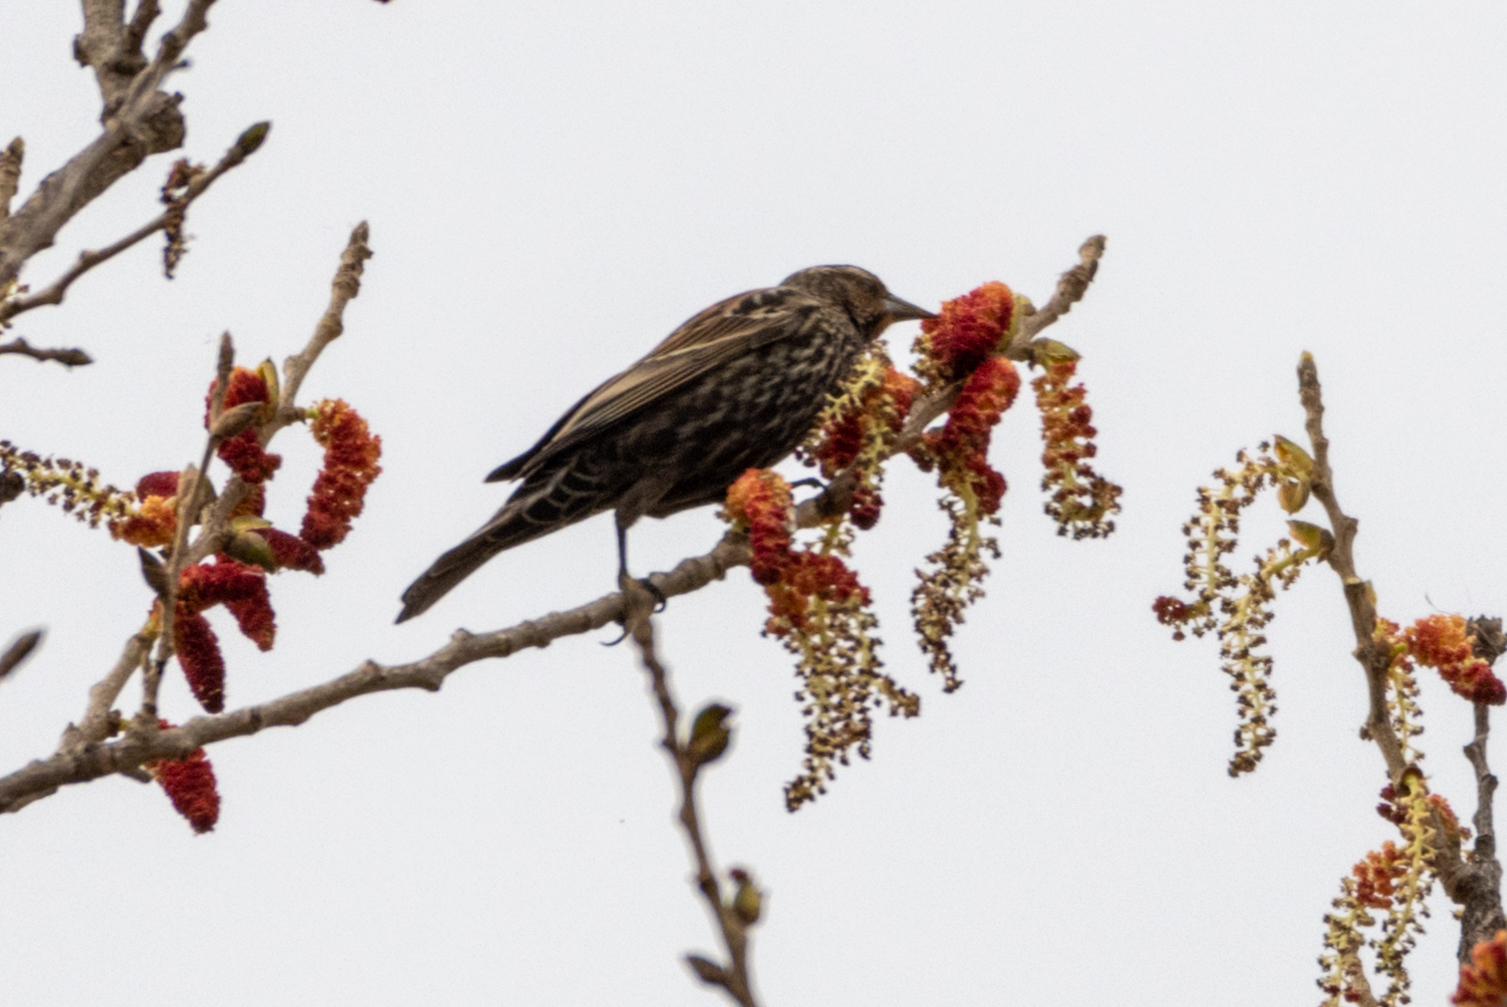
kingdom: Animalia
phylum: Chordata
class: Aves
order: Passeriformes
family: Icteridae
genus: Agelaius
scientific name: Agelaius phoeniceus
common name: Red-winged blackbird
